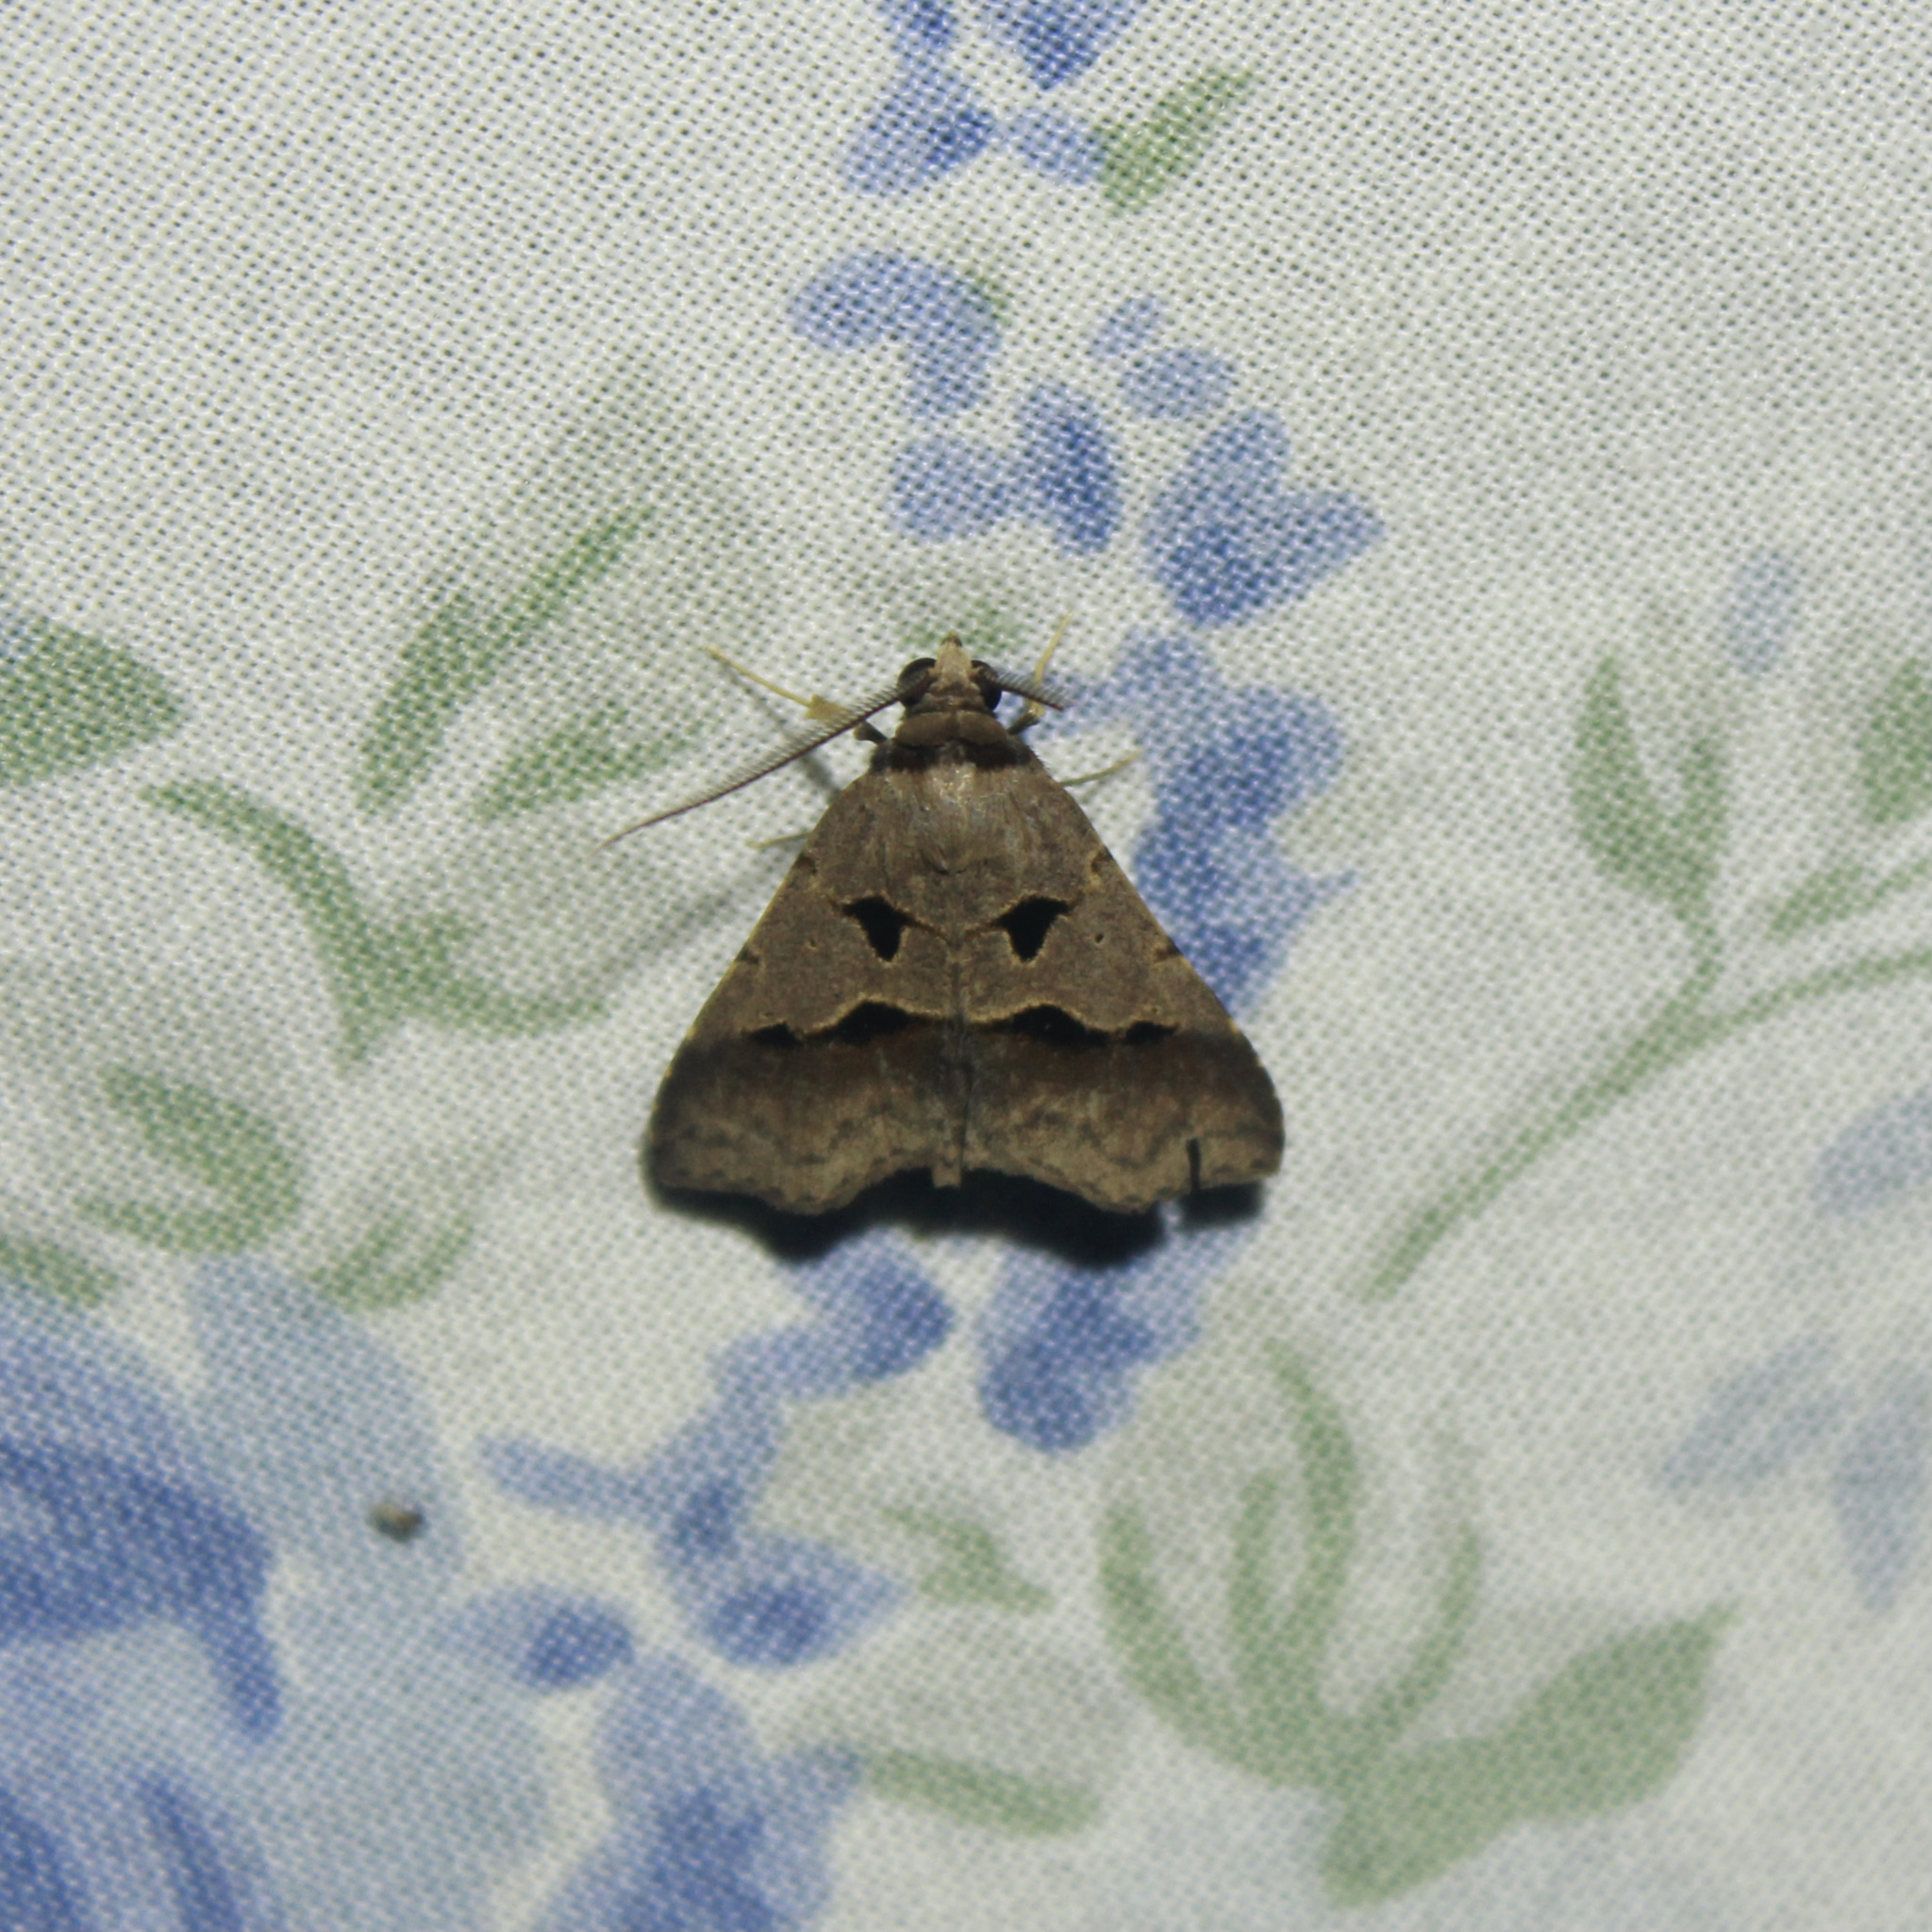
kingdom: Animalia
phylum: Arthropoda
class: Insecta
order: Lepidoptera
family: Erebidae
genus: Baniana
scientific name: Baniana inaequalis
